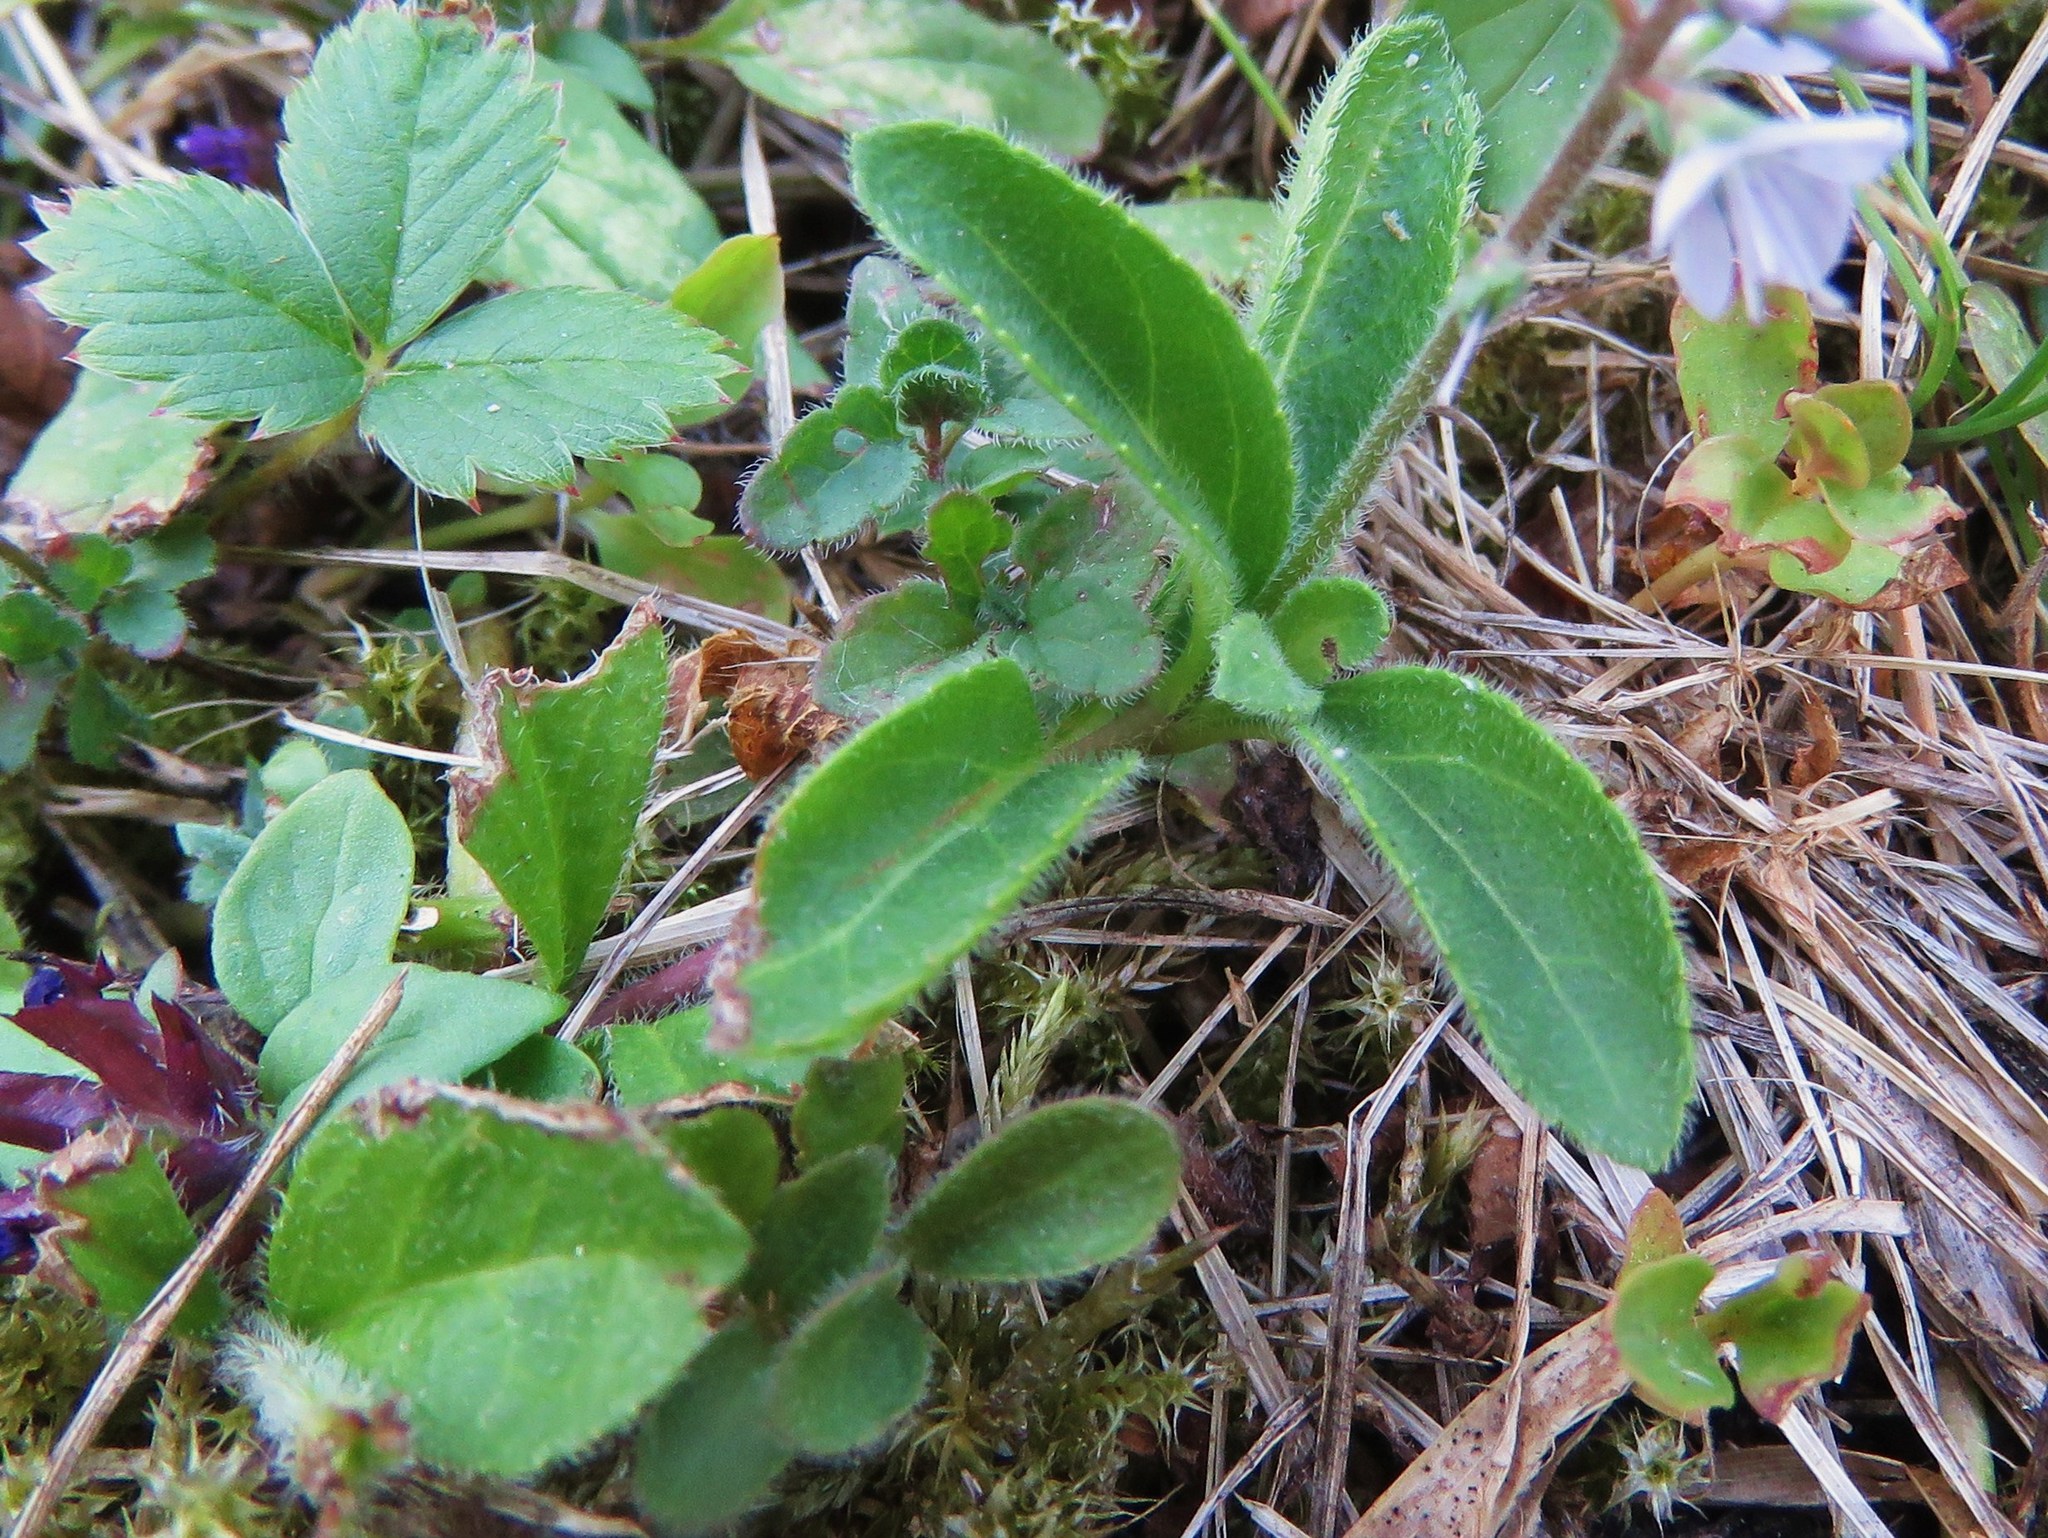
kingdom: Plantae
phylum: Tracheophyta
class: Magnoliopsida
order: Lamiales
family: Plantaginaceae
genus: Veronica
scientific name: Veronica officinalis
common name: Common speedwell
